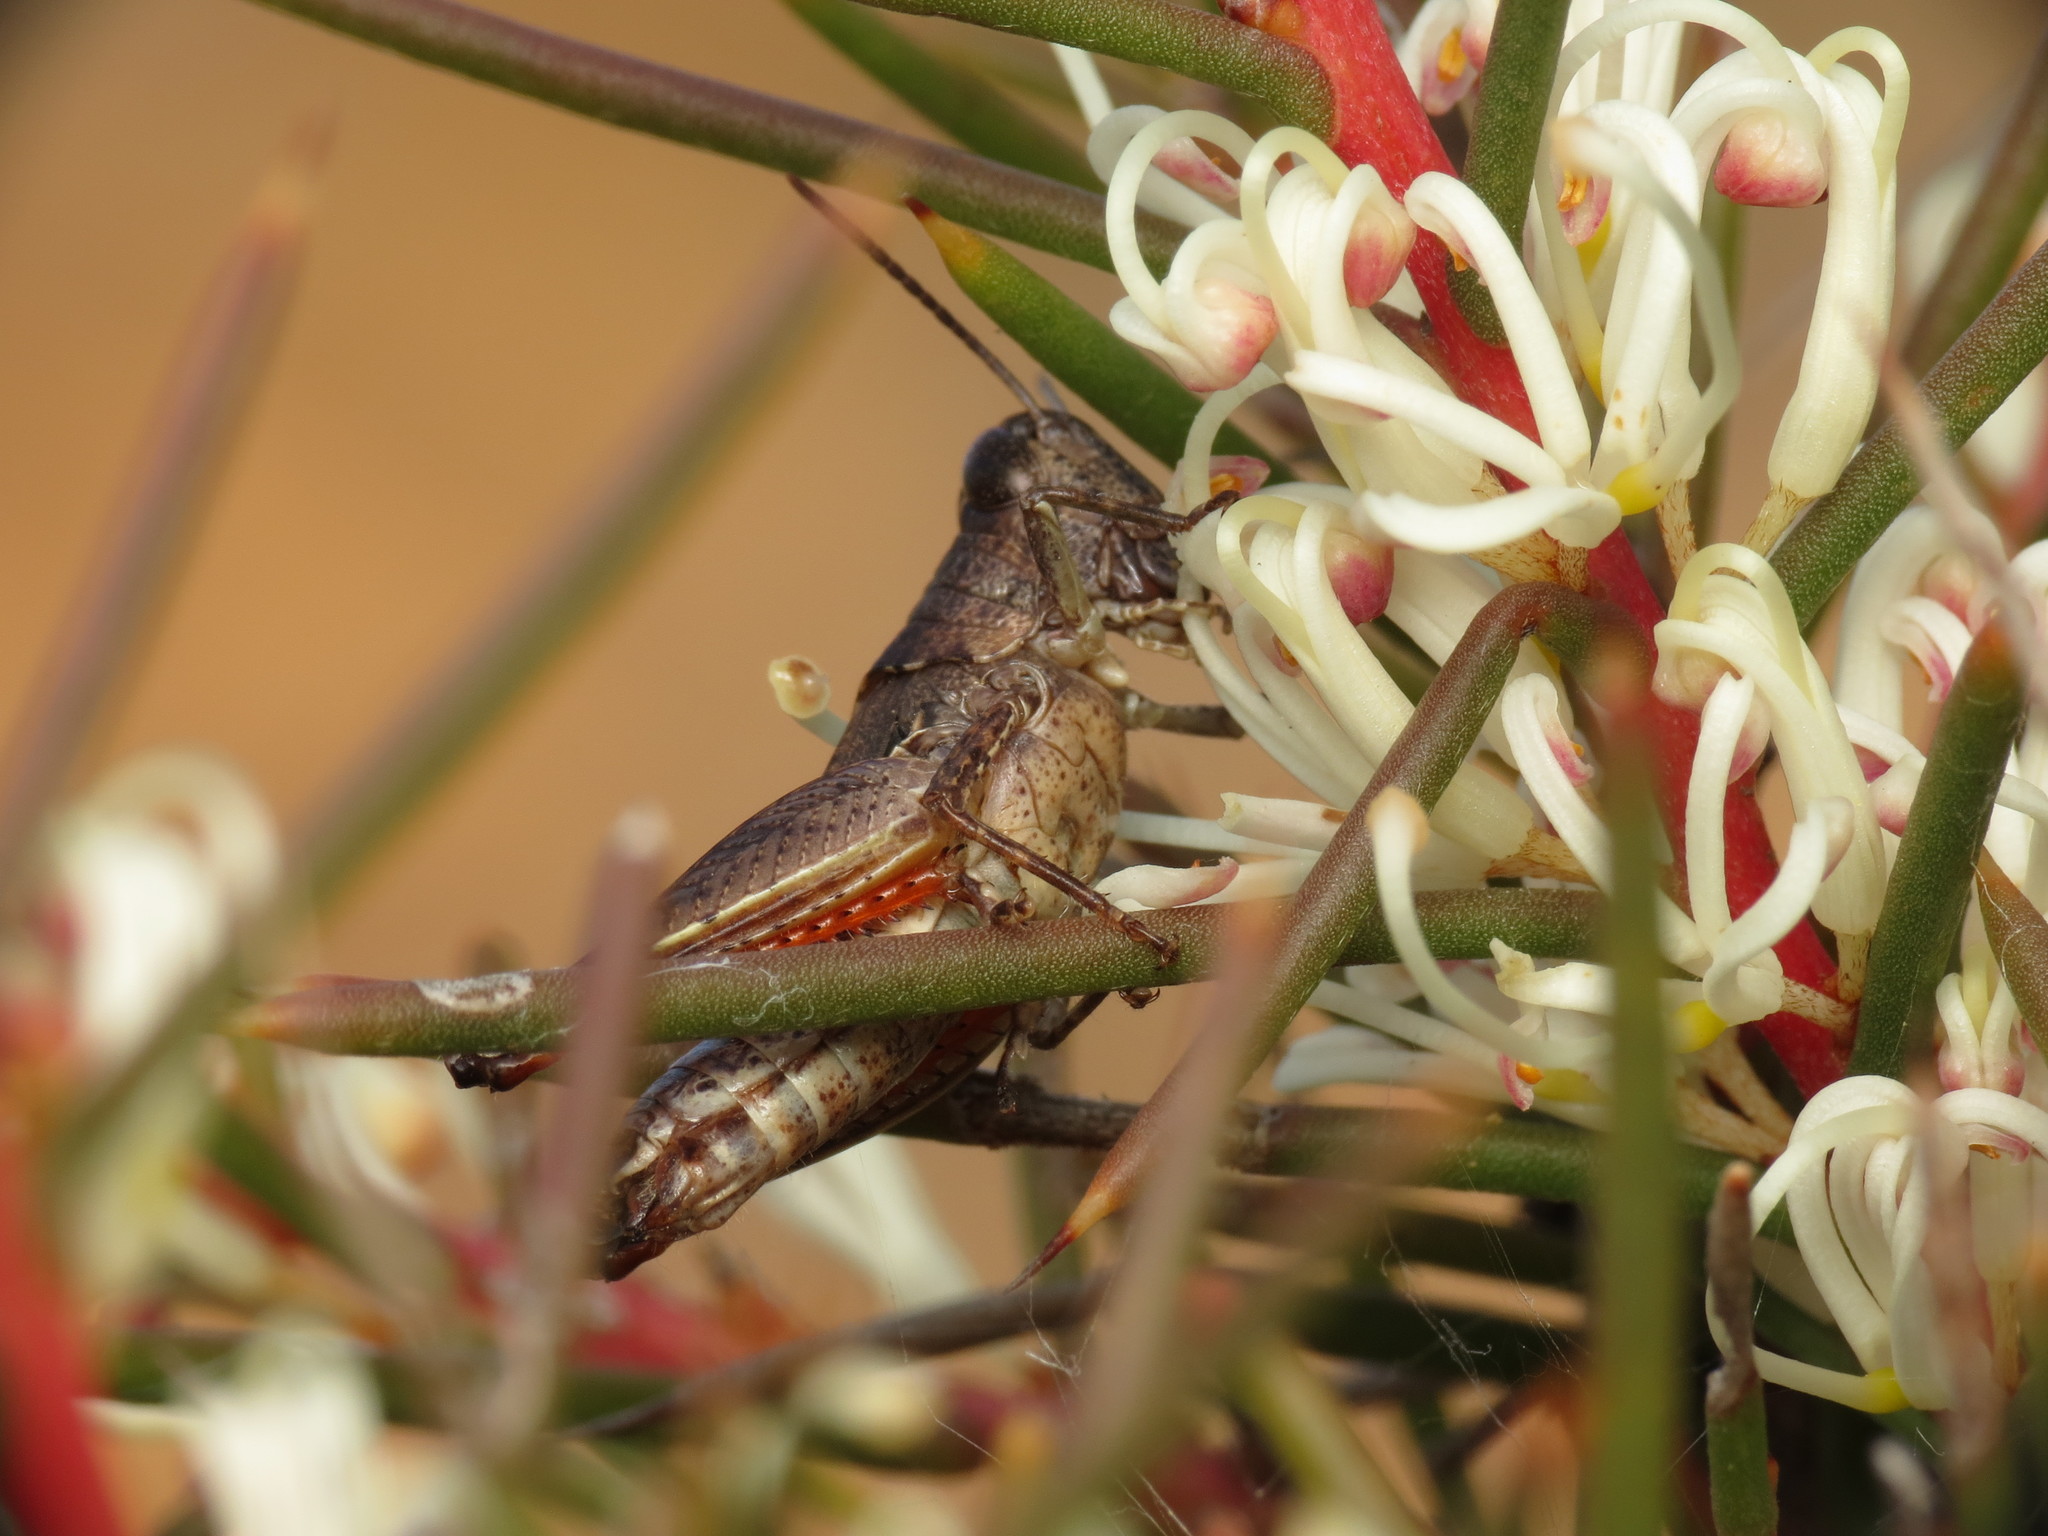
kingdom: Animalia
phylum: Arthropoda
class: Insecta
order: Orthoptera
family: Acrididae
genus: Phaulacridium
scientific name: Phaulacridium vittatum
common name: Wingless grasshopper
